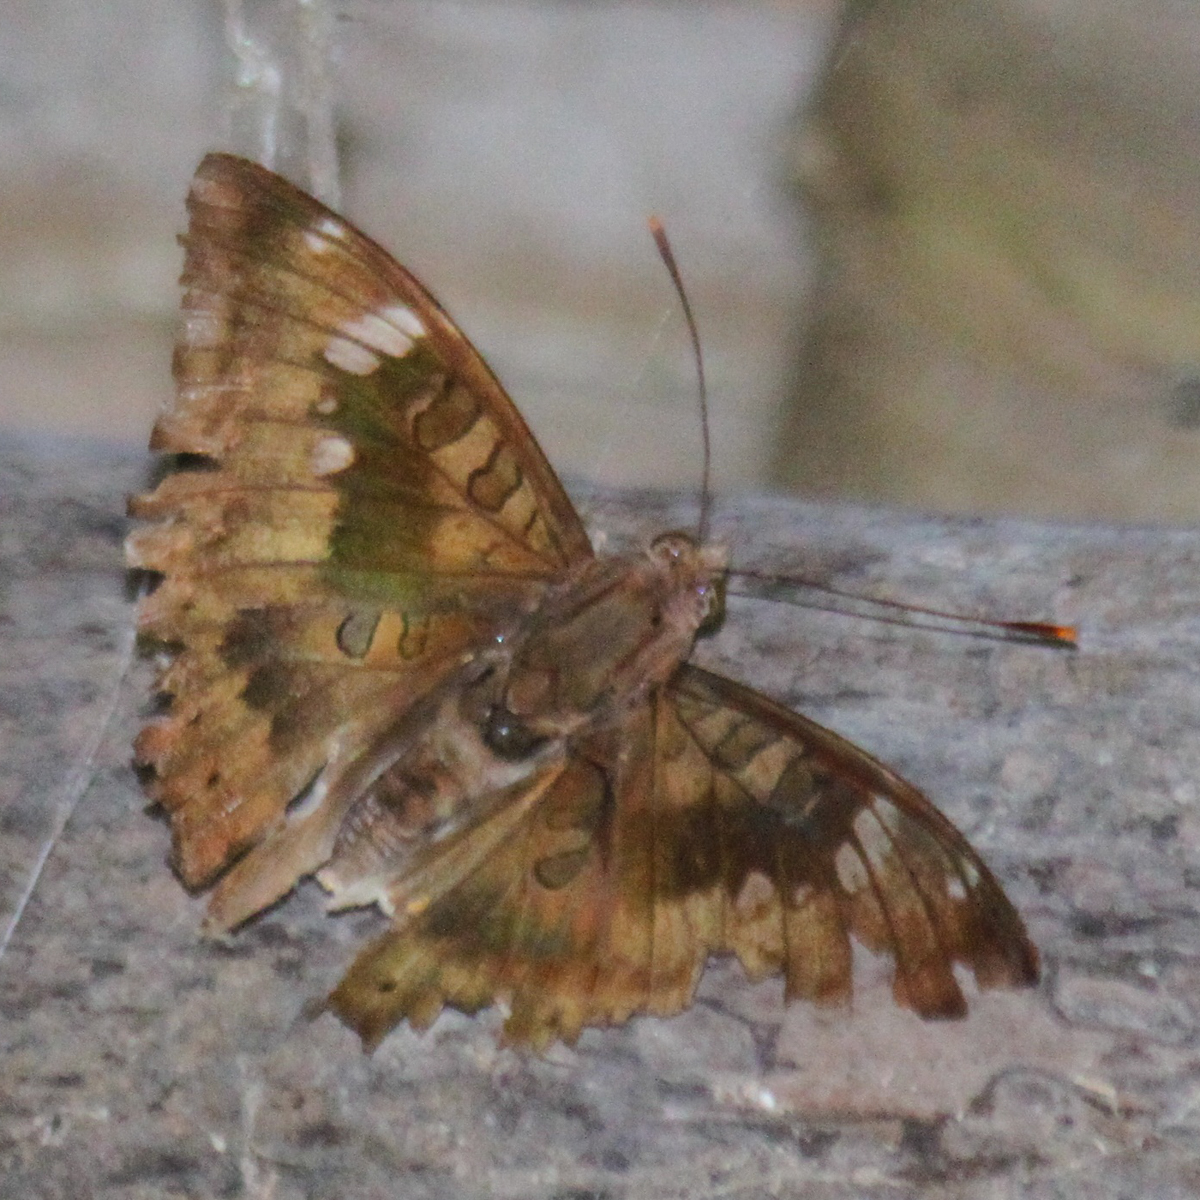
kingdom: Animalia
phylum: Arthropoda
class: Insecta
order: Lepidoptera
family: Nymphalidae
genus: Euthalia
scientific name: Euthalia aconthea
